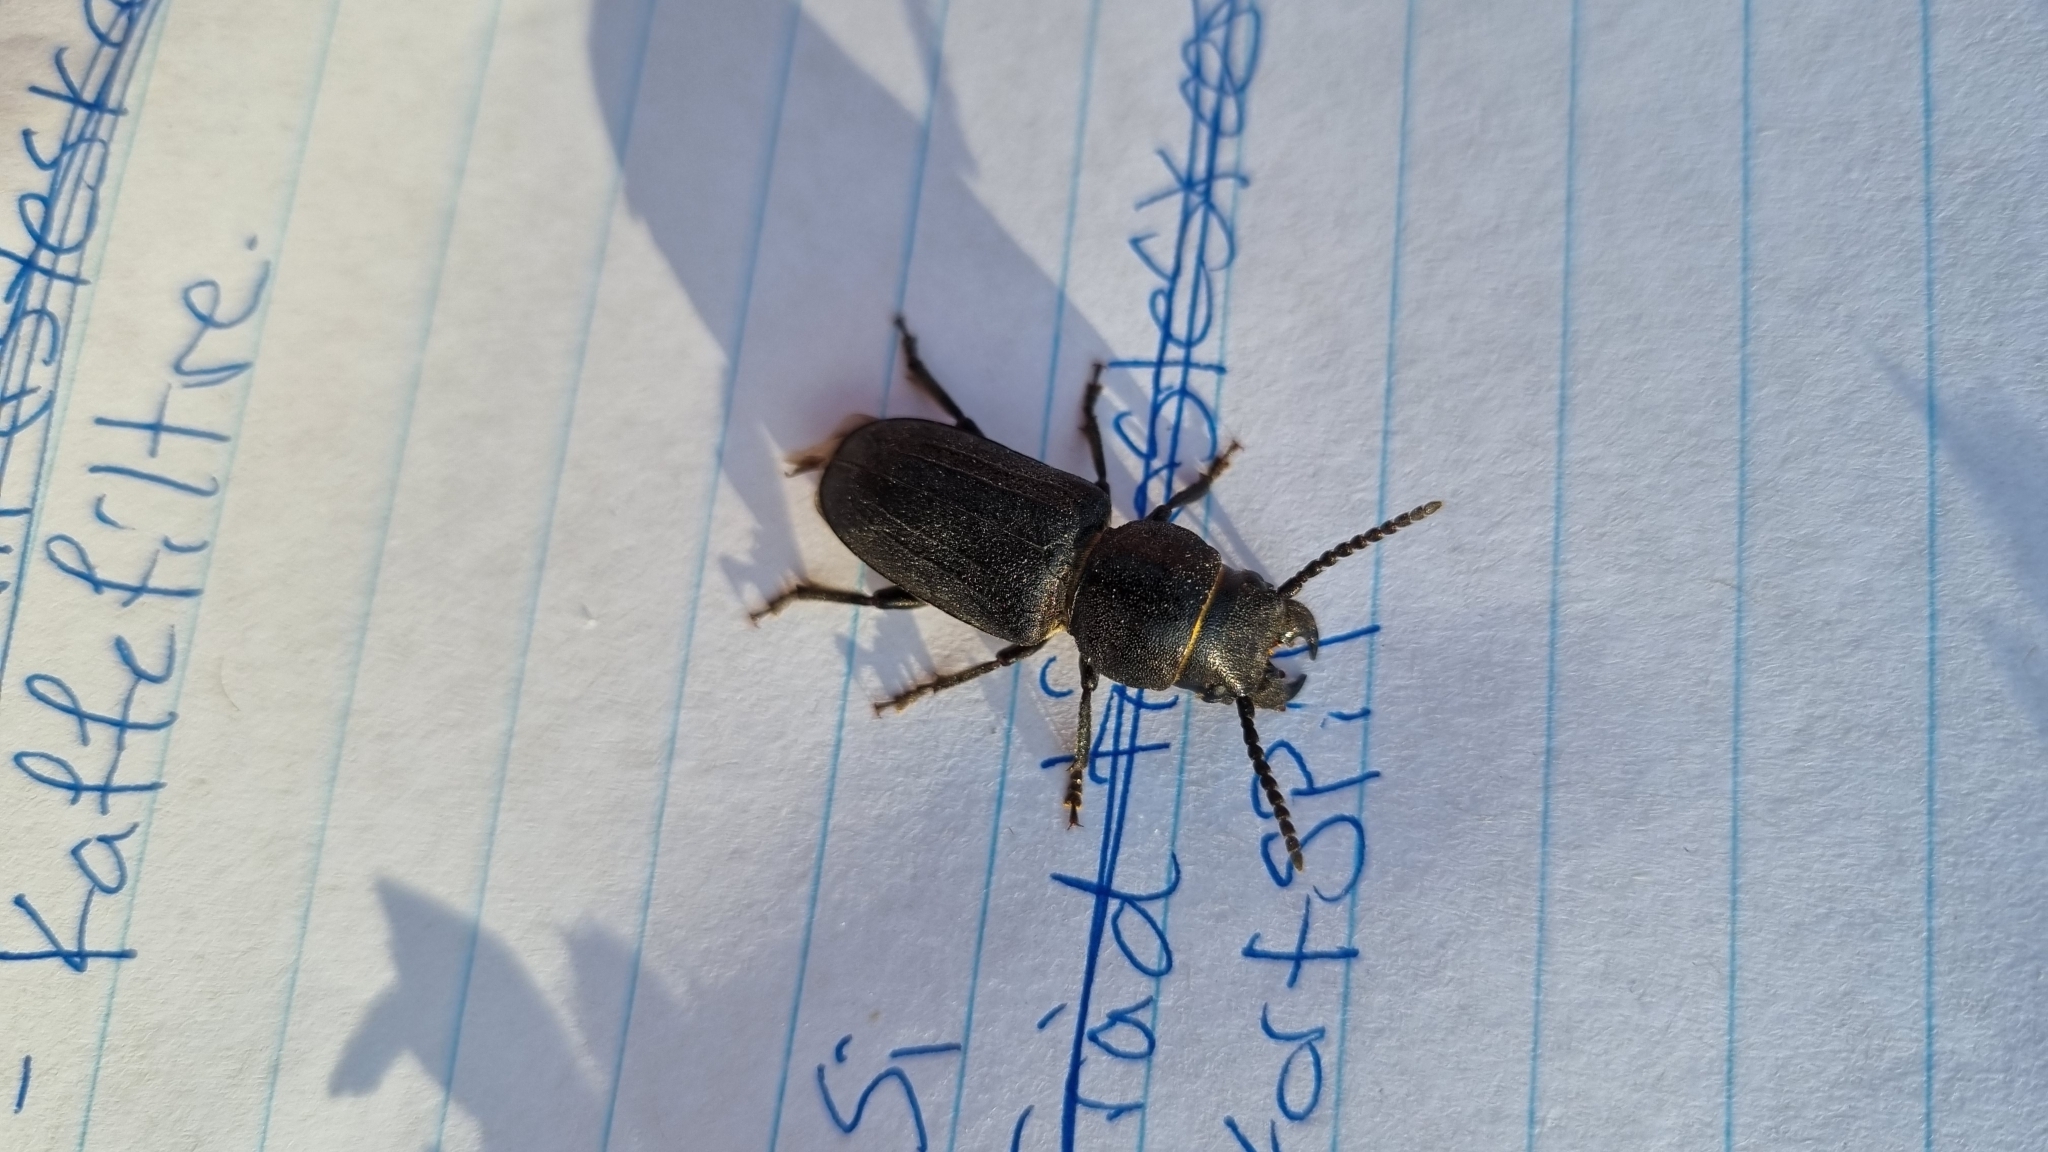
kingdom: Animalia
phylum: Arthropoda
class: Insecta
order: Coleoptera
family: Cerambycidae
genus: Spondylis
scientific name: Spondylis buprestoides
